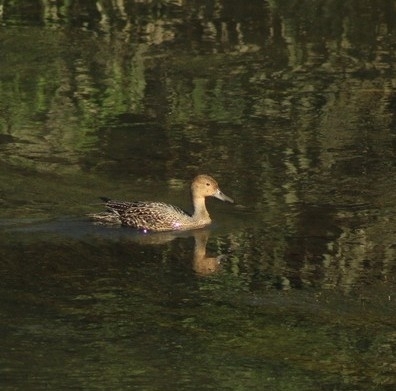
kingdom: Animalia
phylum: Chordata
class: Aves
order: Anseriformes
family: Anatidae
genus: Anas
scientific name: Anas acuta
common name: Northern pintail
